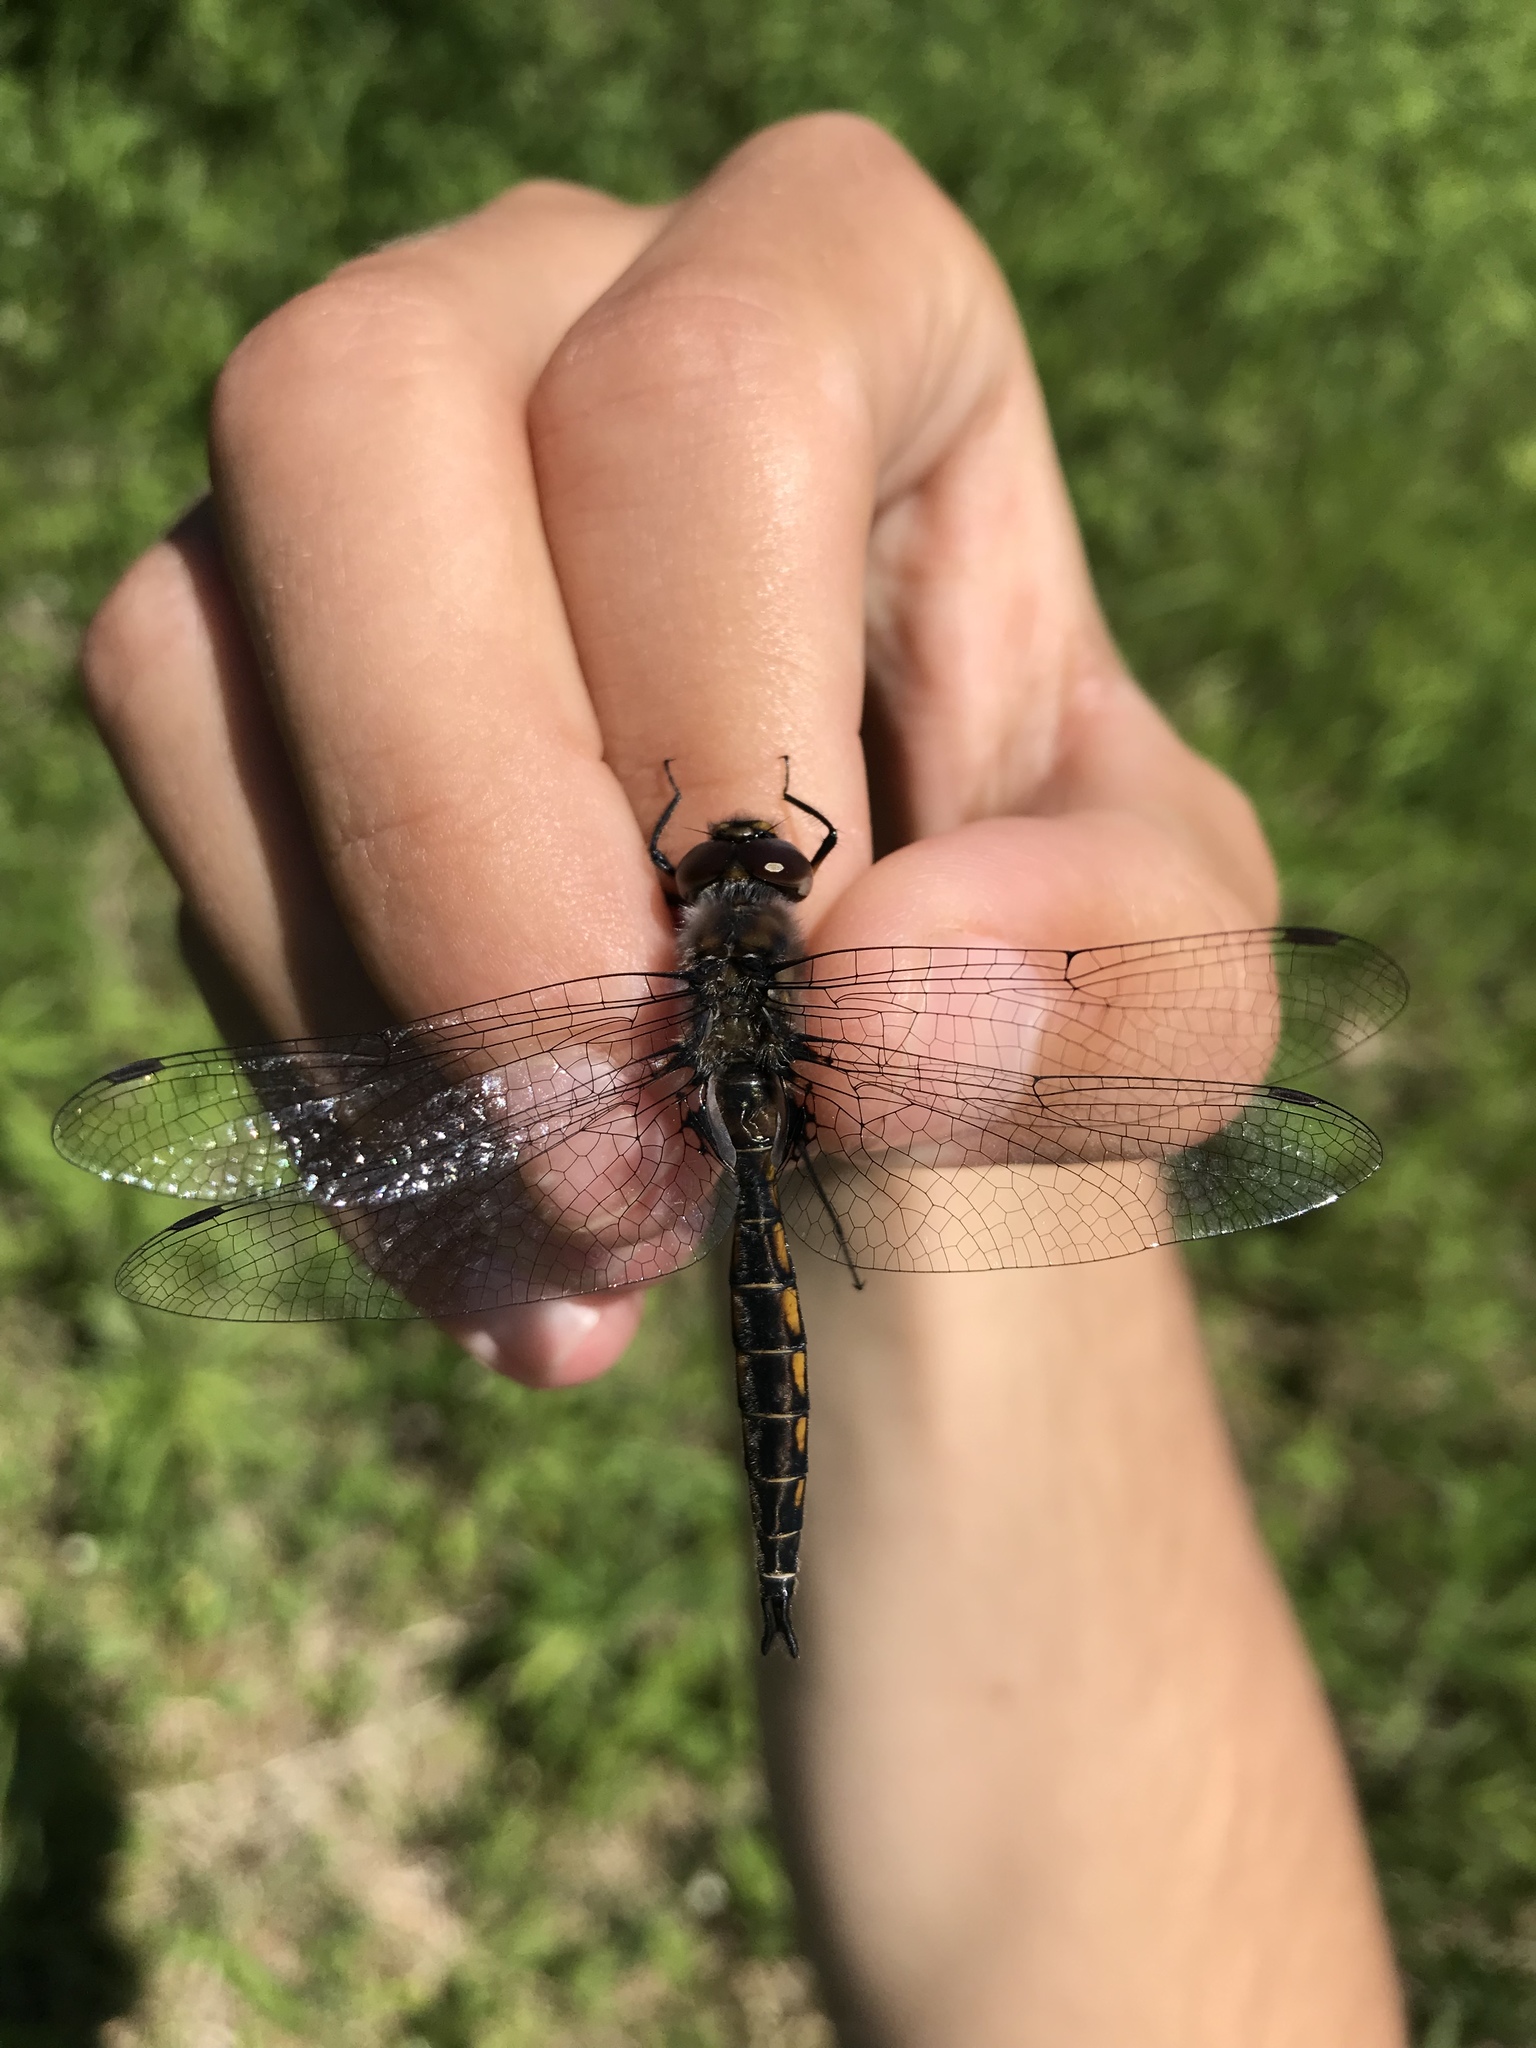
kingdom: Animalia
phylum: Arthropoda
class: Insecta
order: Odonata
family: Corduliidae
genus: Epitheca
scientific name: Epitheca spinigera
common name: Spiny baskettail
